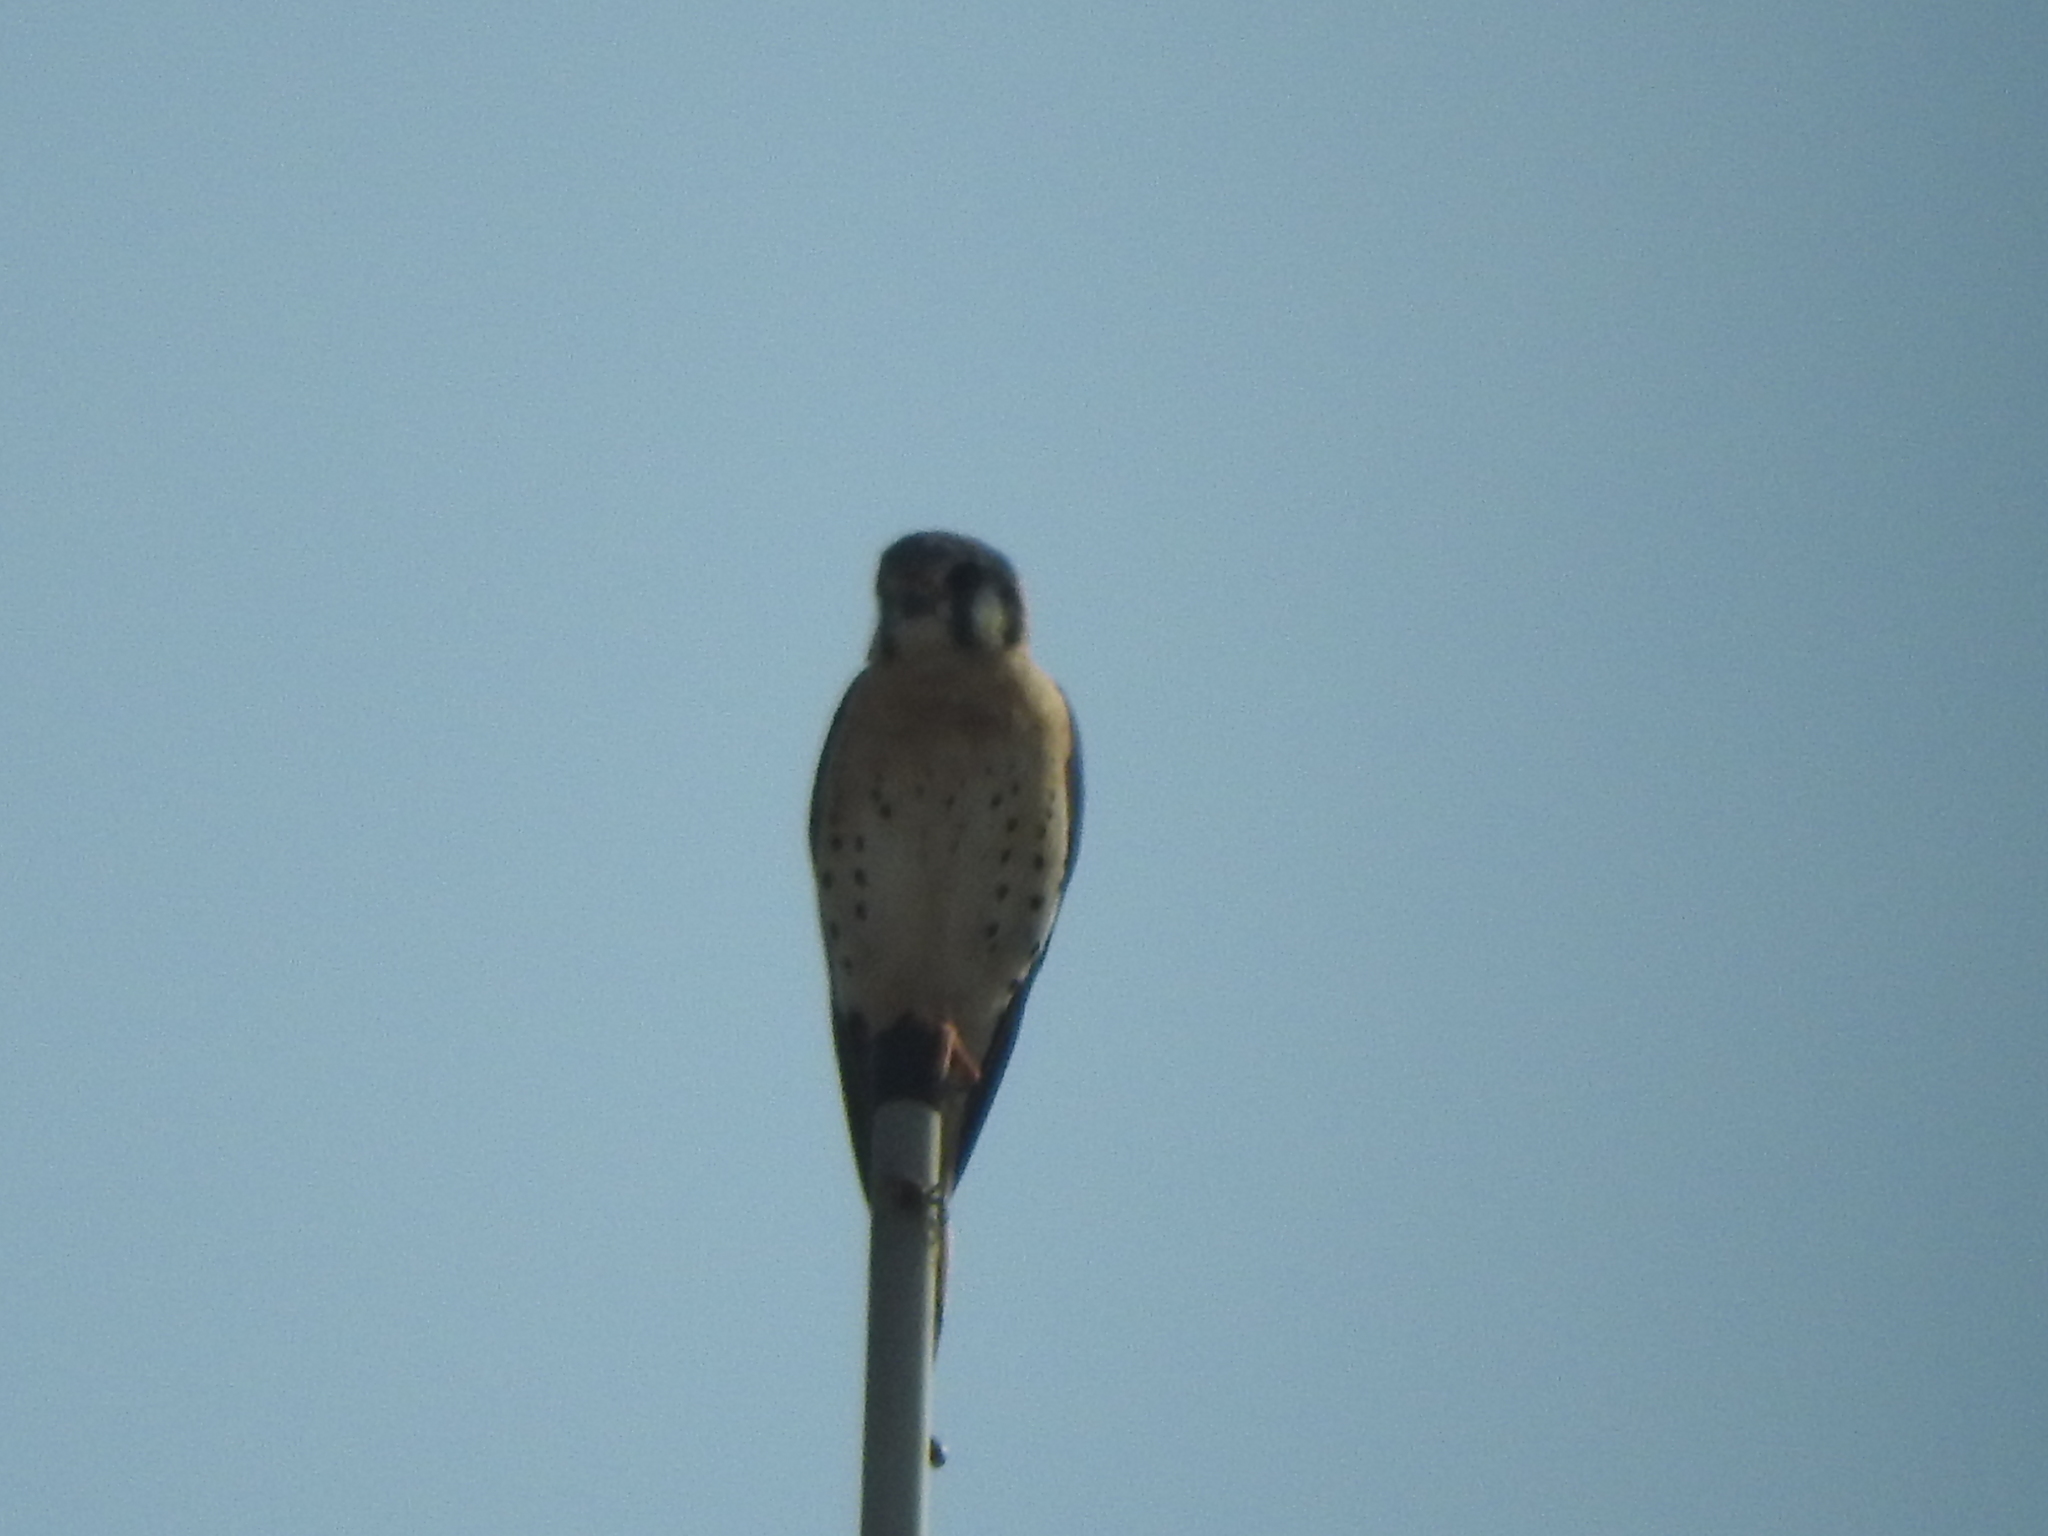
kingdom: Animalia
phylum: Chordata
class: Aves
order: Falconiformes
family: Falconidae
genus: Falco
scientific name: Falco sparverius
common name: American kestrel
